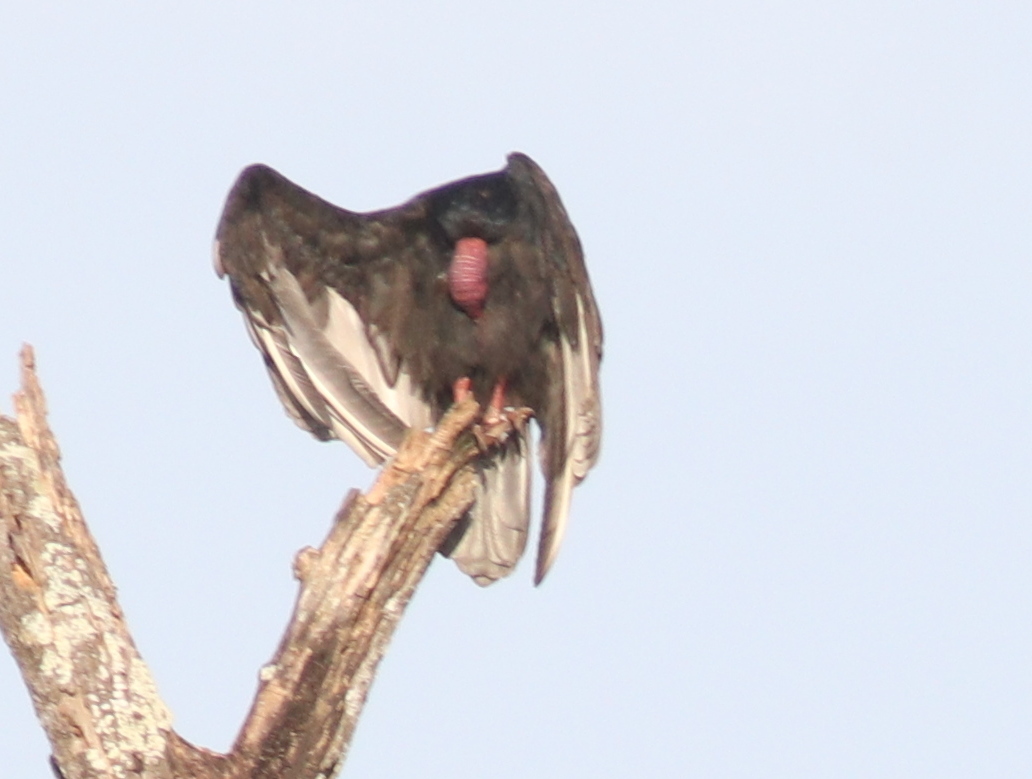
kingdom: Animalia
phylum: Chordata
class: Aves
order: Accipitriformes
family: Cathartidae
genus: Cathartes
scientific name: Cathartes aura
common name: Turkey vulture
